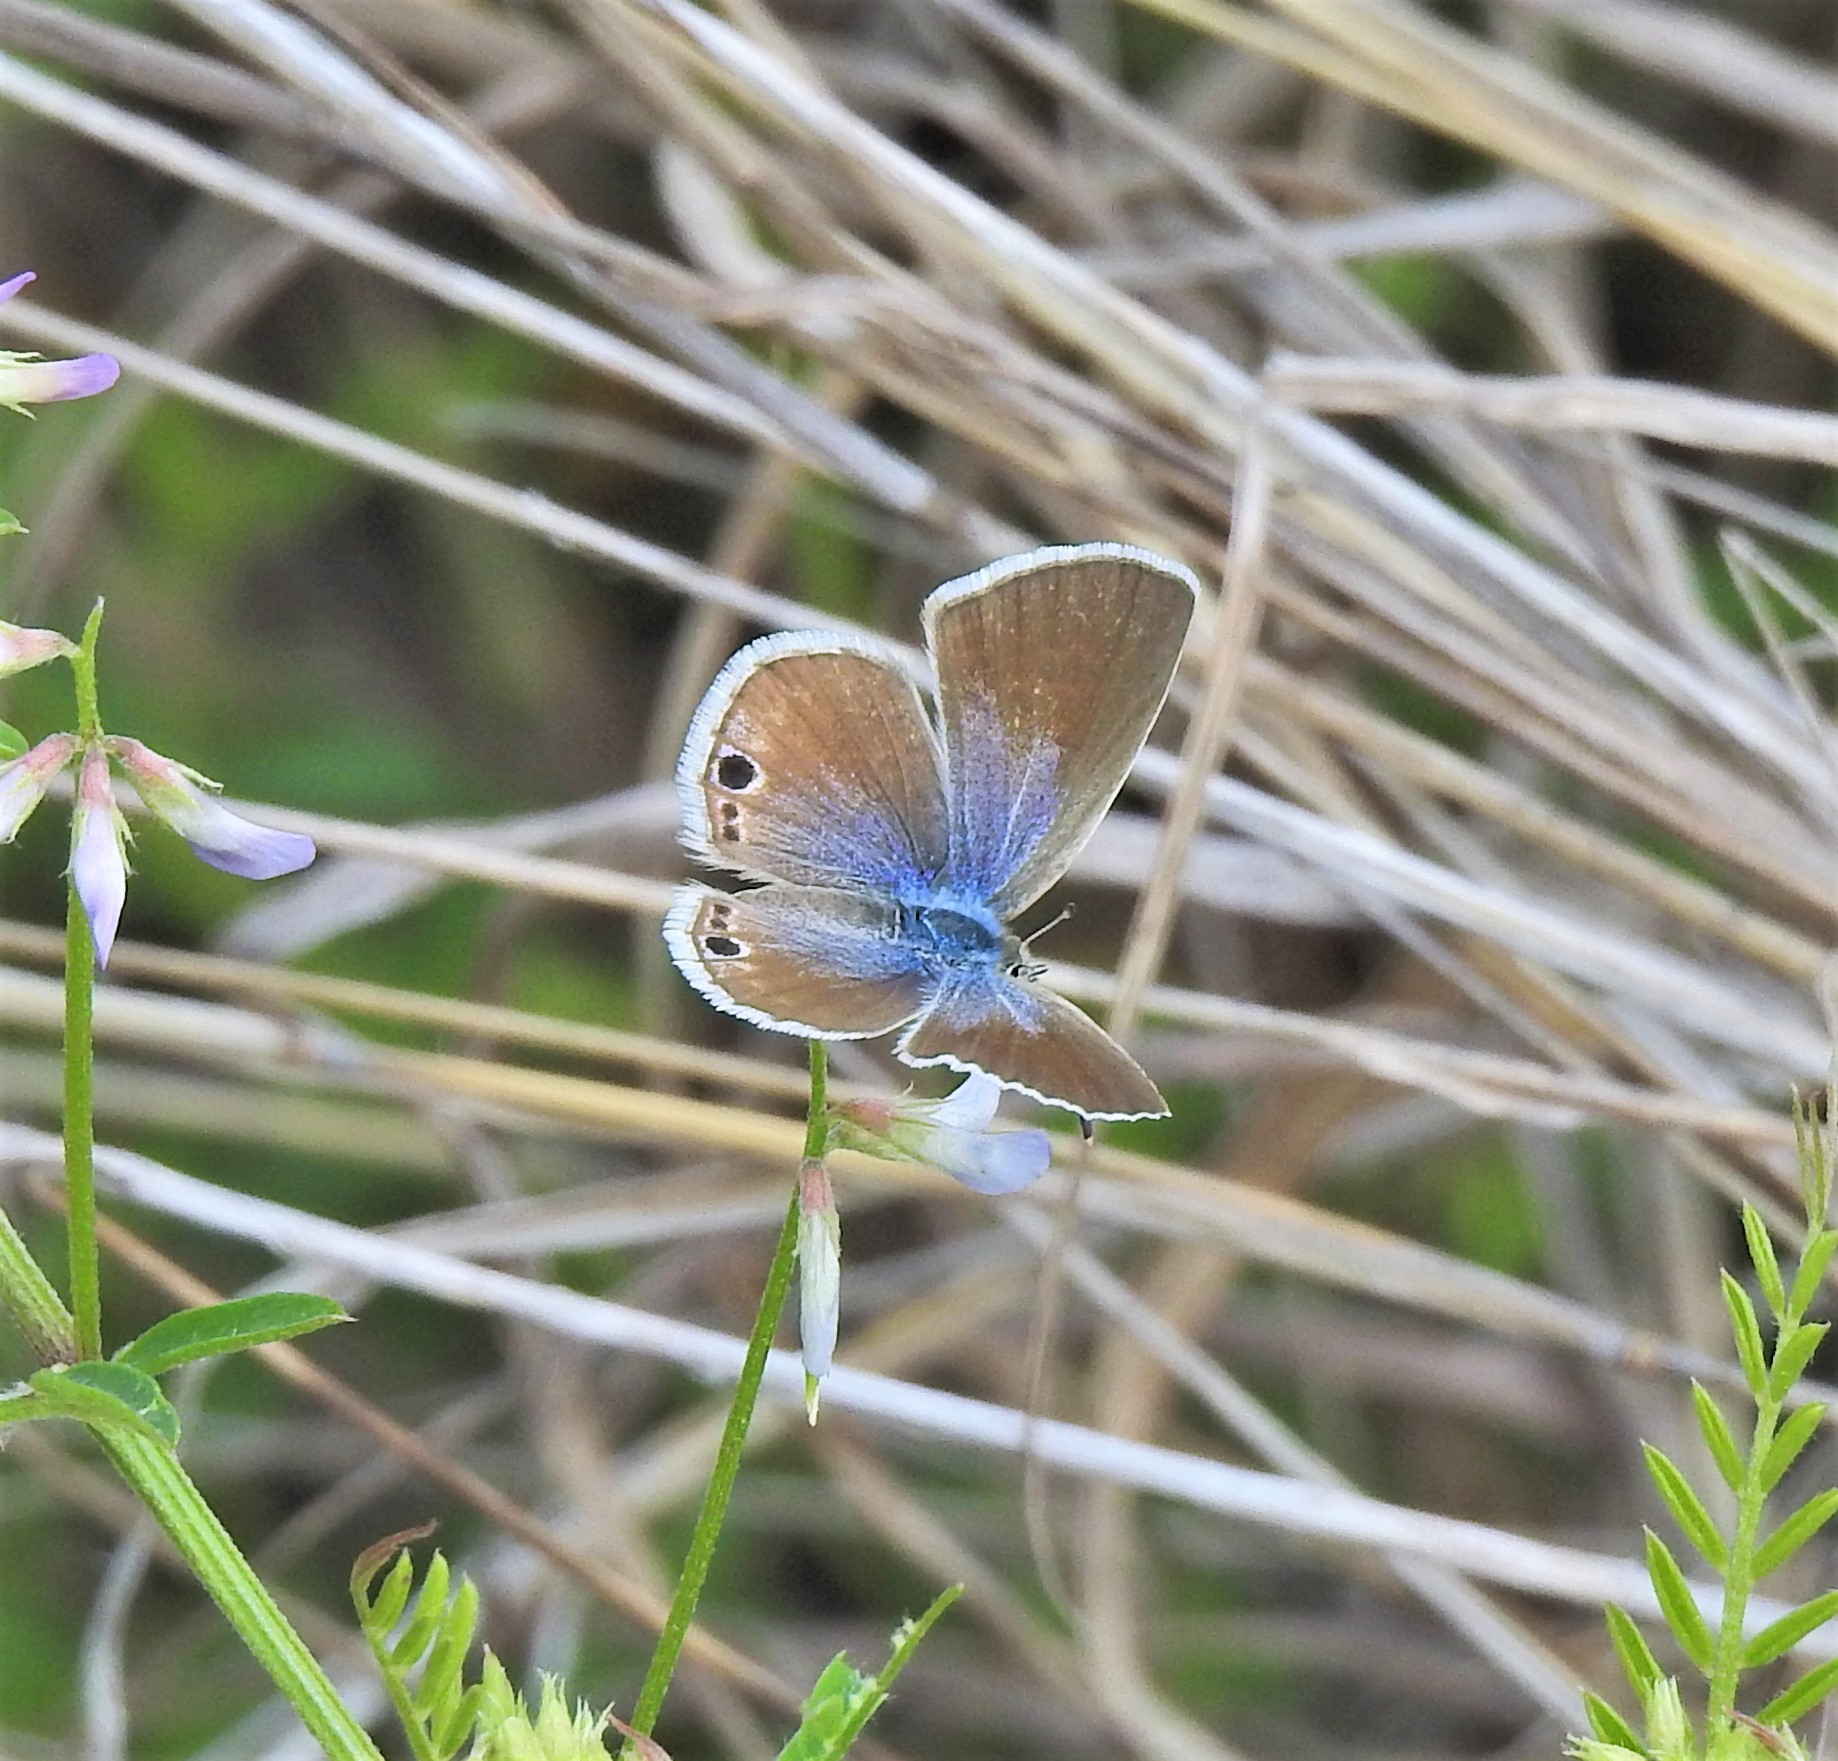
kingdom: Animalia
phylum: Arthropoda
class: Insecta
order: Lepidoptera
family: Lycaenidae
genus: Echinargus
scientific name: Echinargus isola
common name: Reakirt's blue
